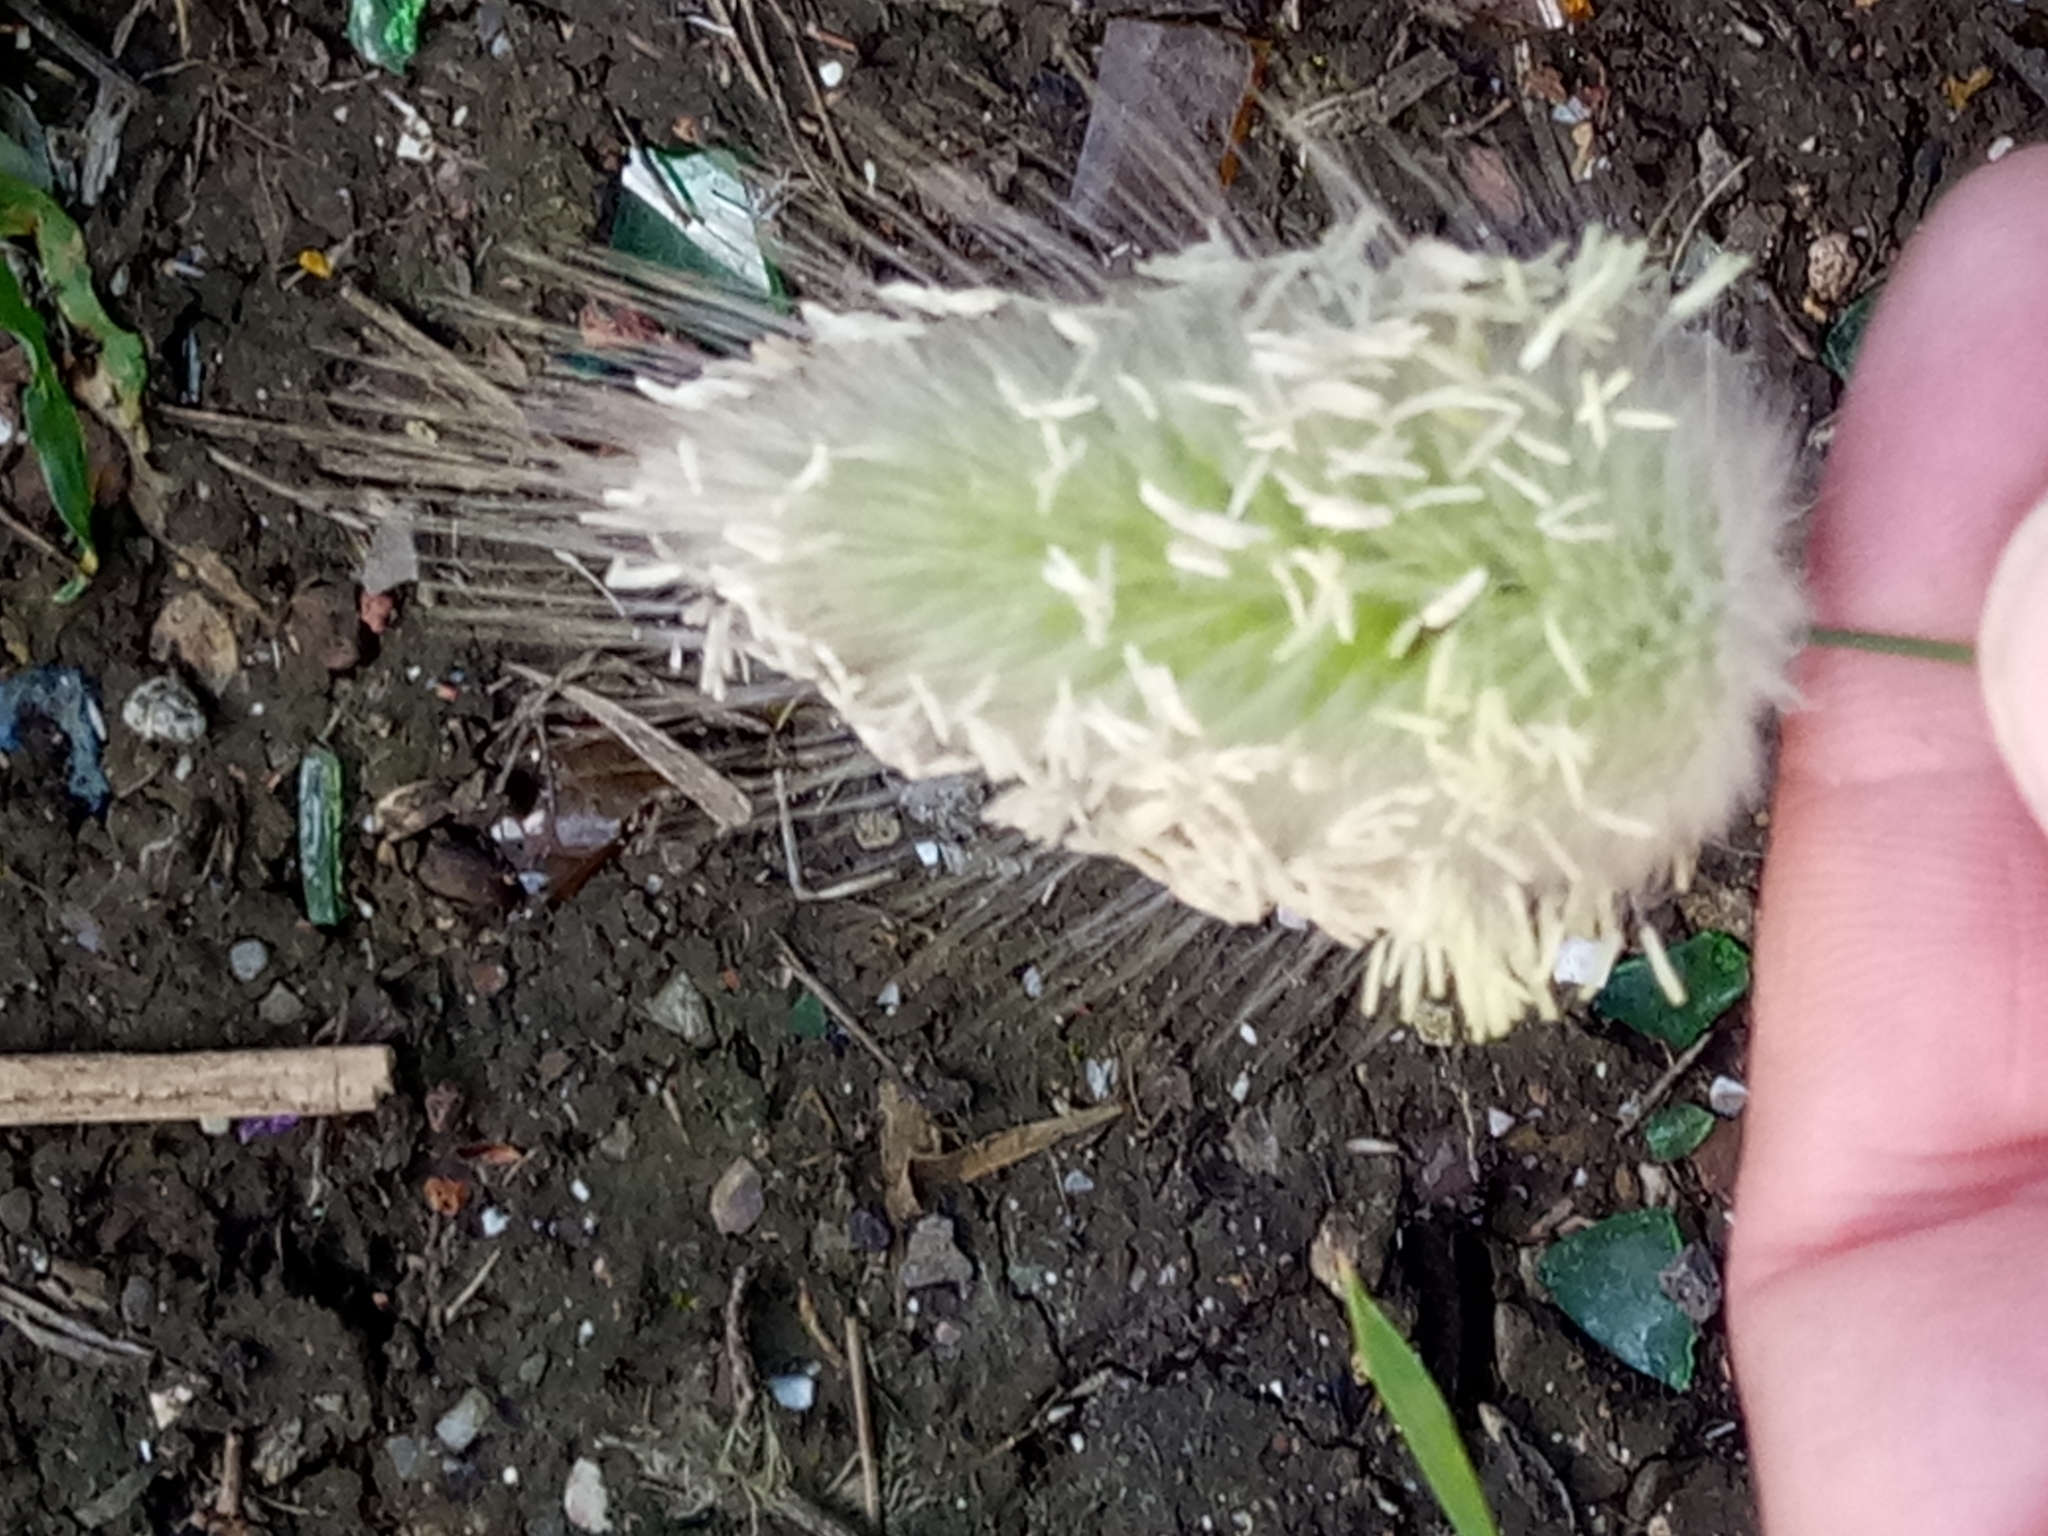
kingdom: Plantae
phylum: Tracheophyta
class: Liliopsida
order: Poales
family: Poaceae
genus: Lagurus
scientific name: Lagurus ovatus
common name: Hare's-tail
